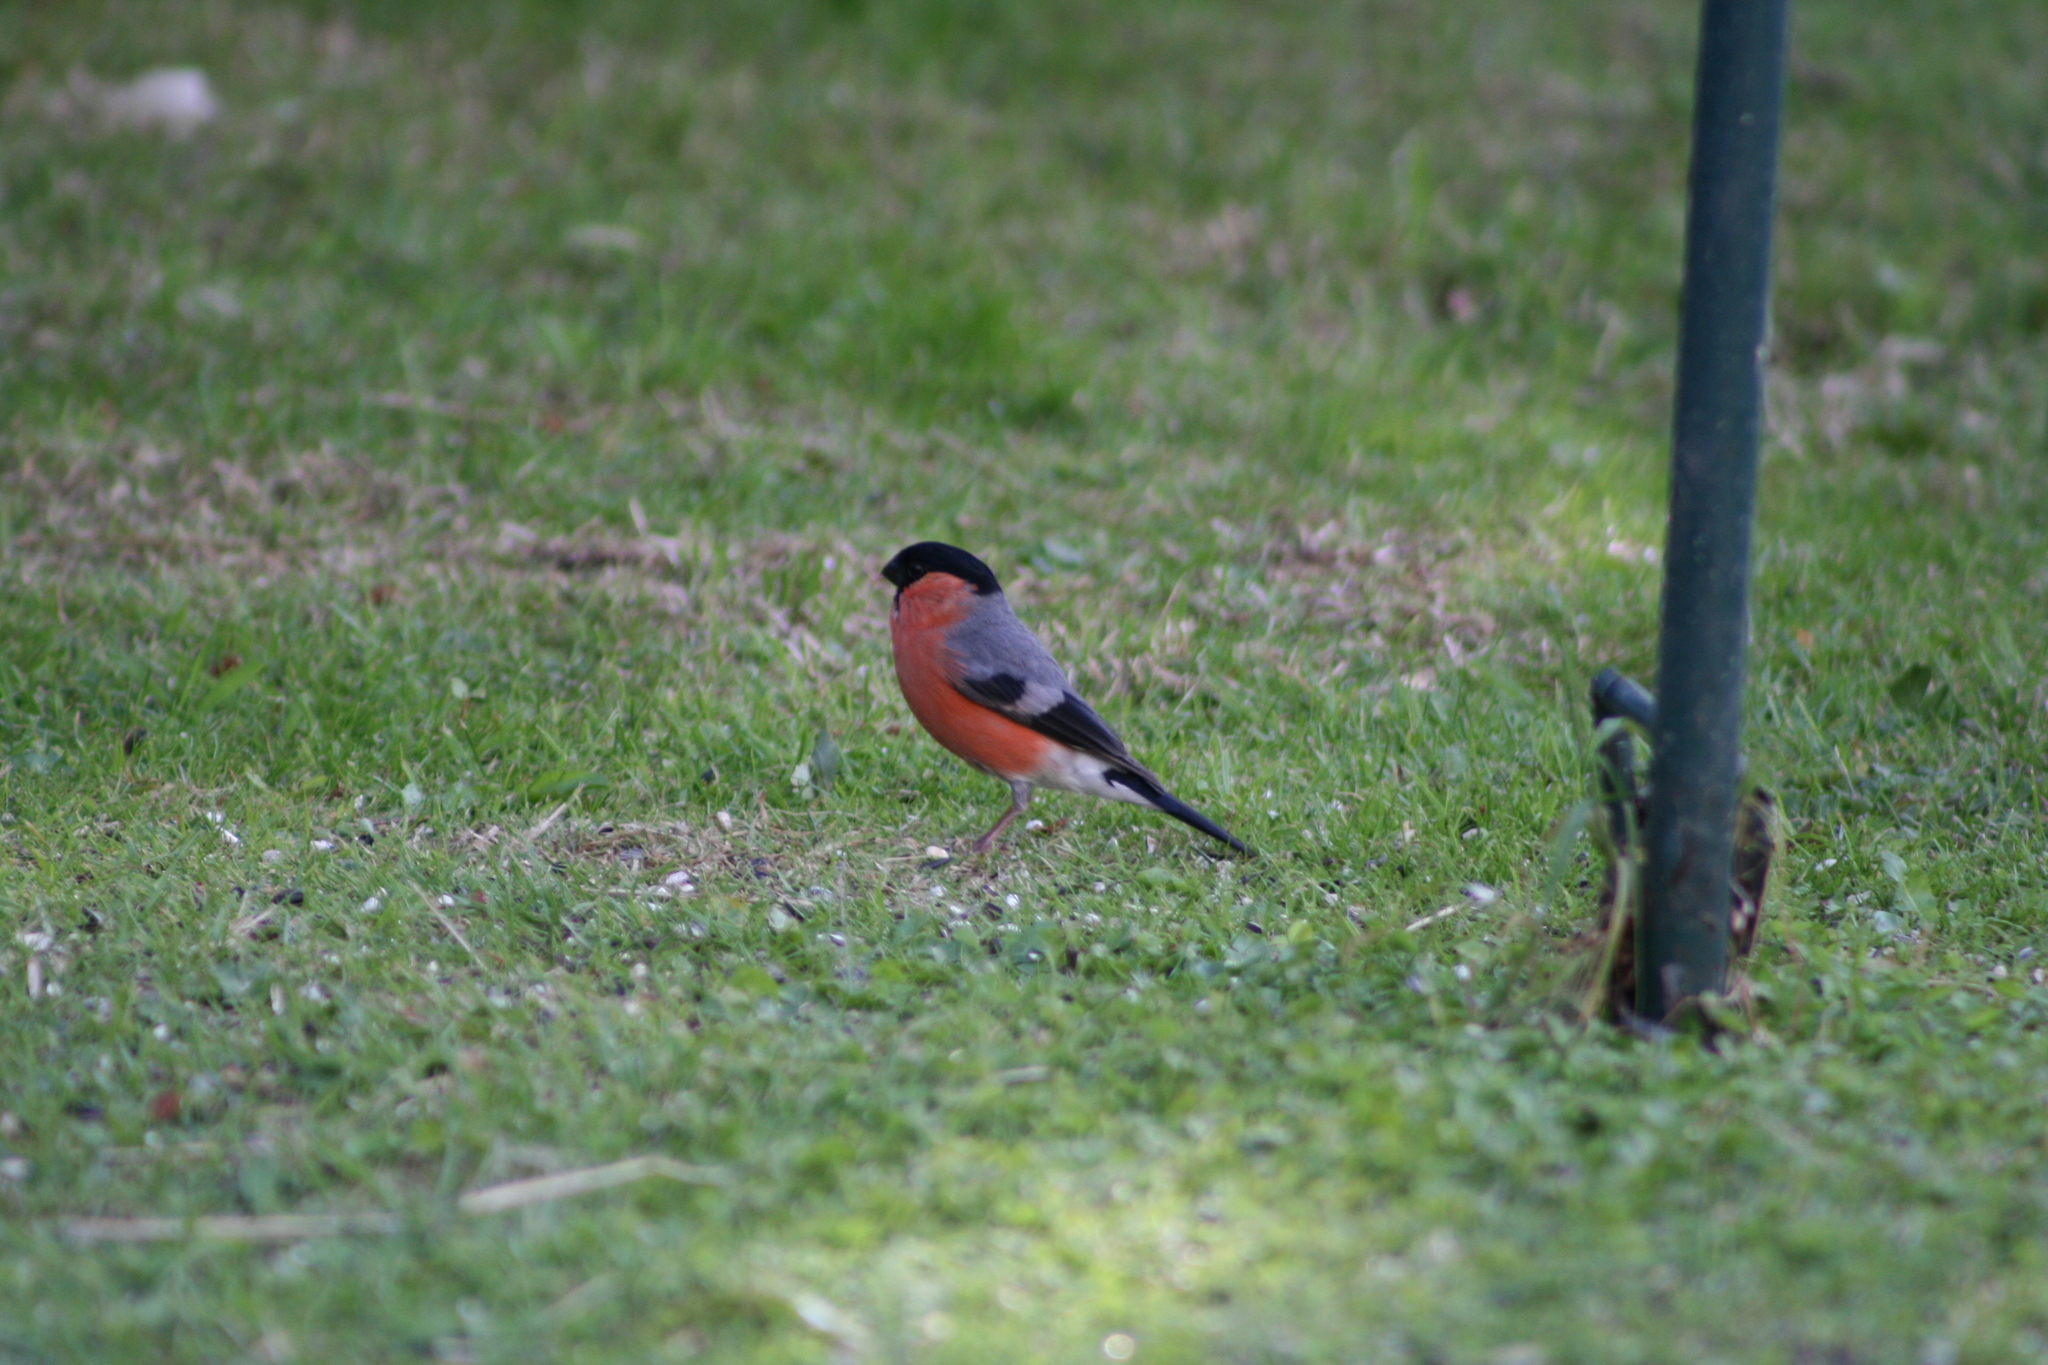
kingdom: Animalia
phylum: Chordata
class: Aves
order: Passeriformes
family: Fringillidae
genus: Pyrrhula
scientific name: Pyrrhula pyrrhula
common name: Eurasian bullfinch
